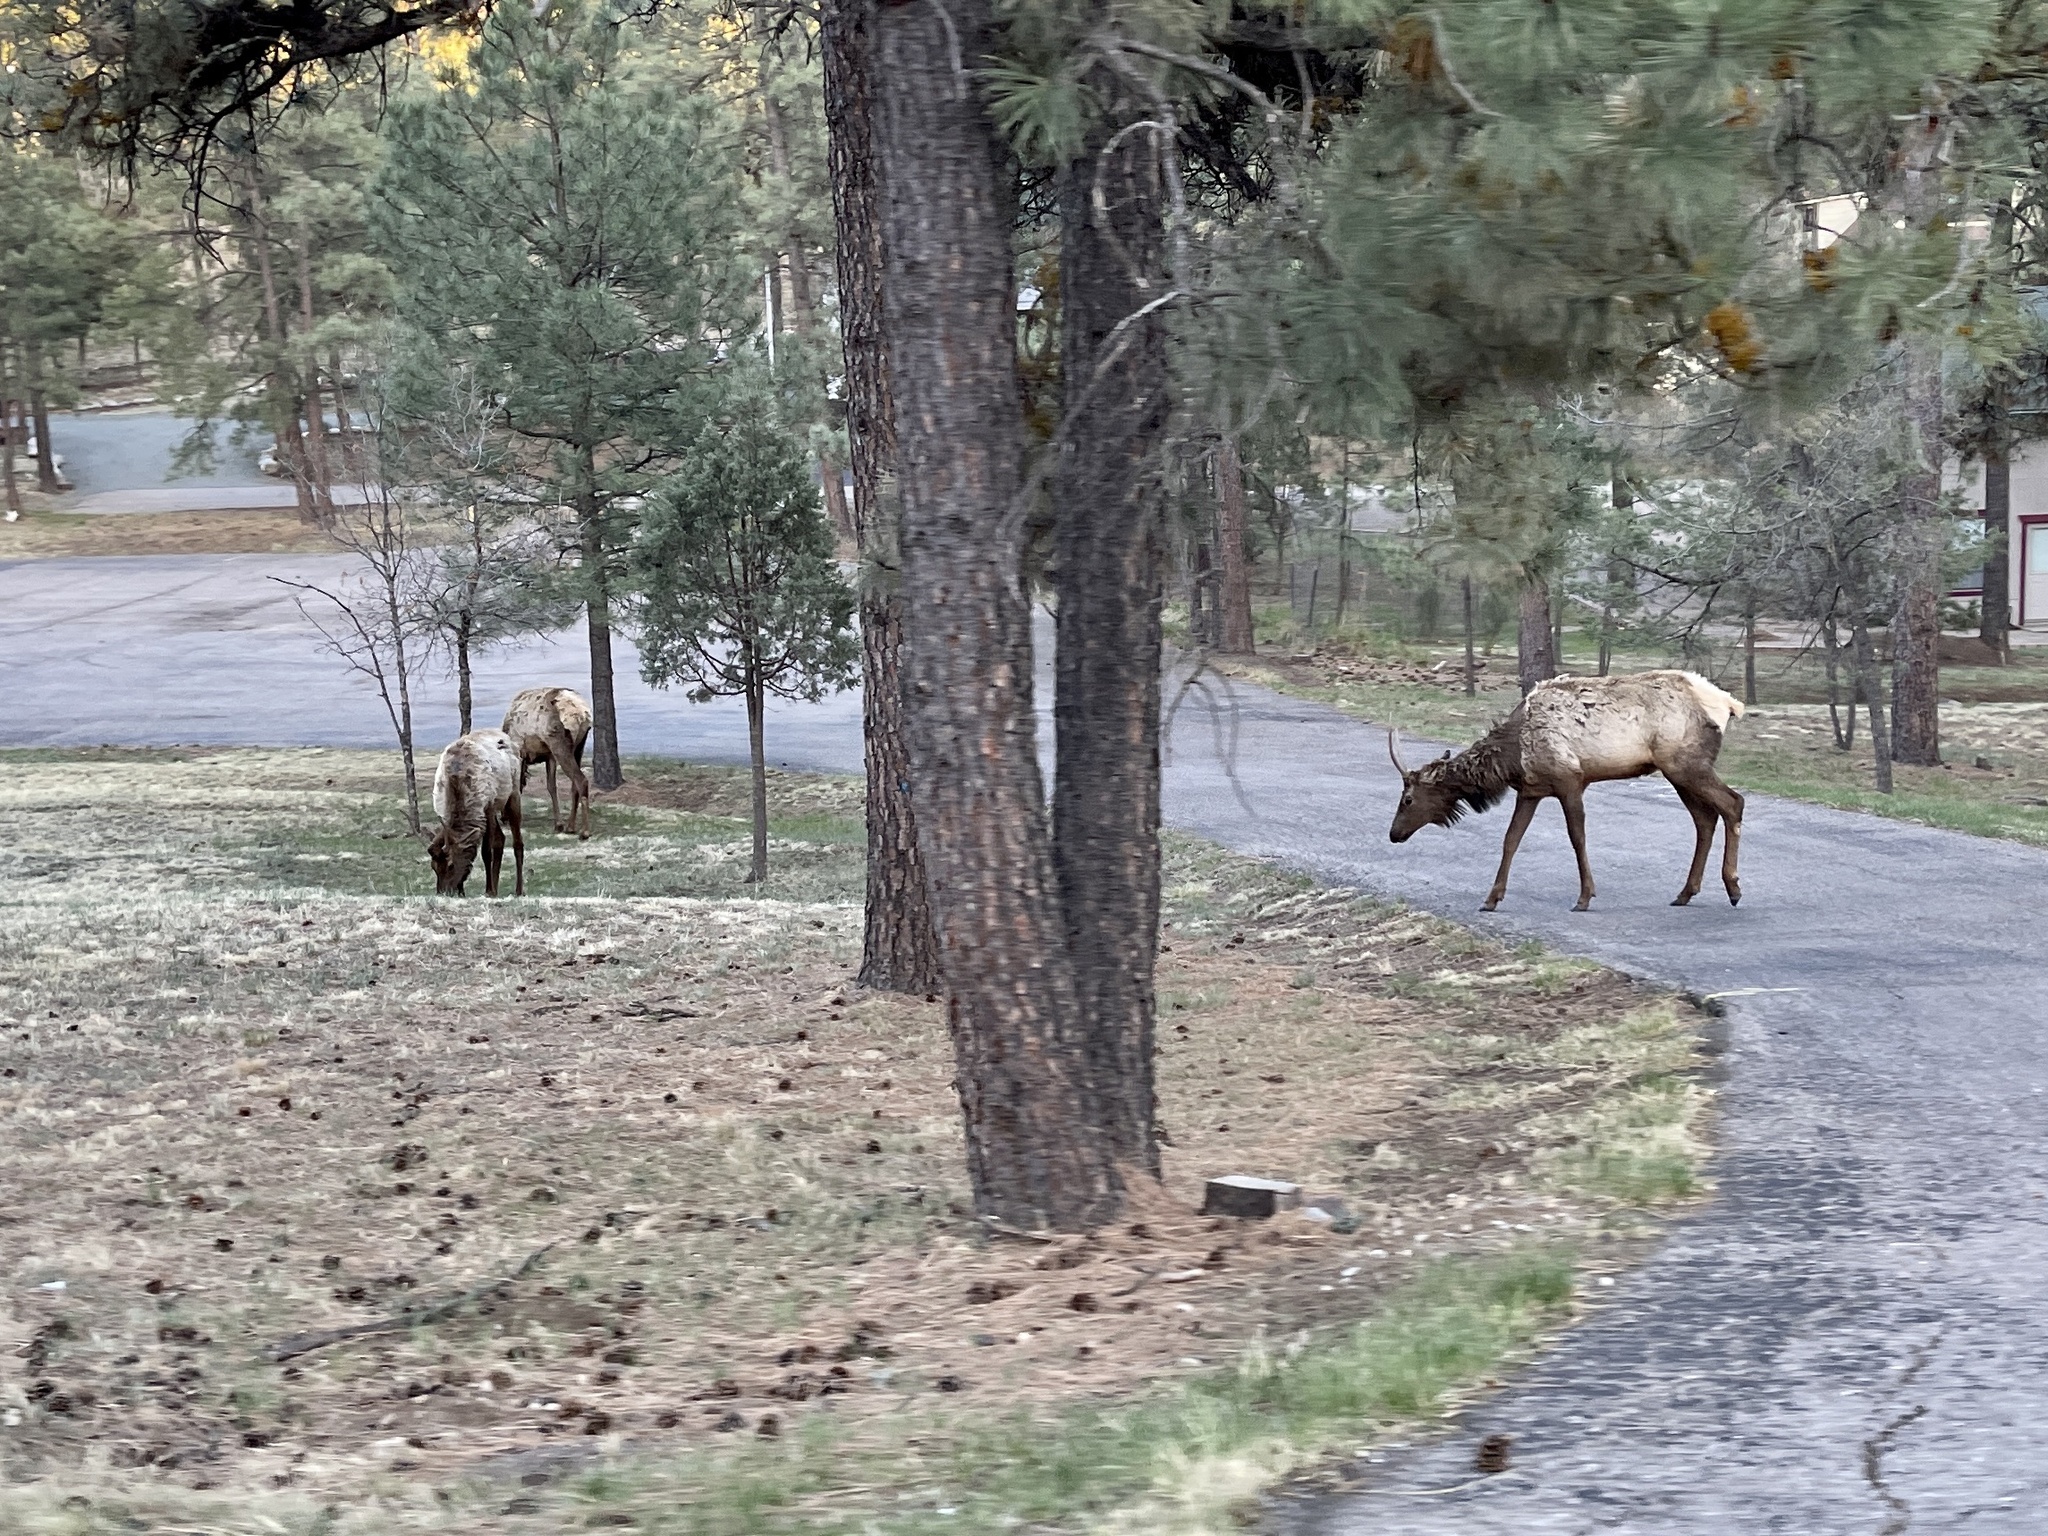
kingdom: Animalia
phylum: Chordata
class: Mammalia
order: Artiodactyla
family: Cervidae
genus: Cervus
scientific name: Cervus elaphus
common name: Red deer
